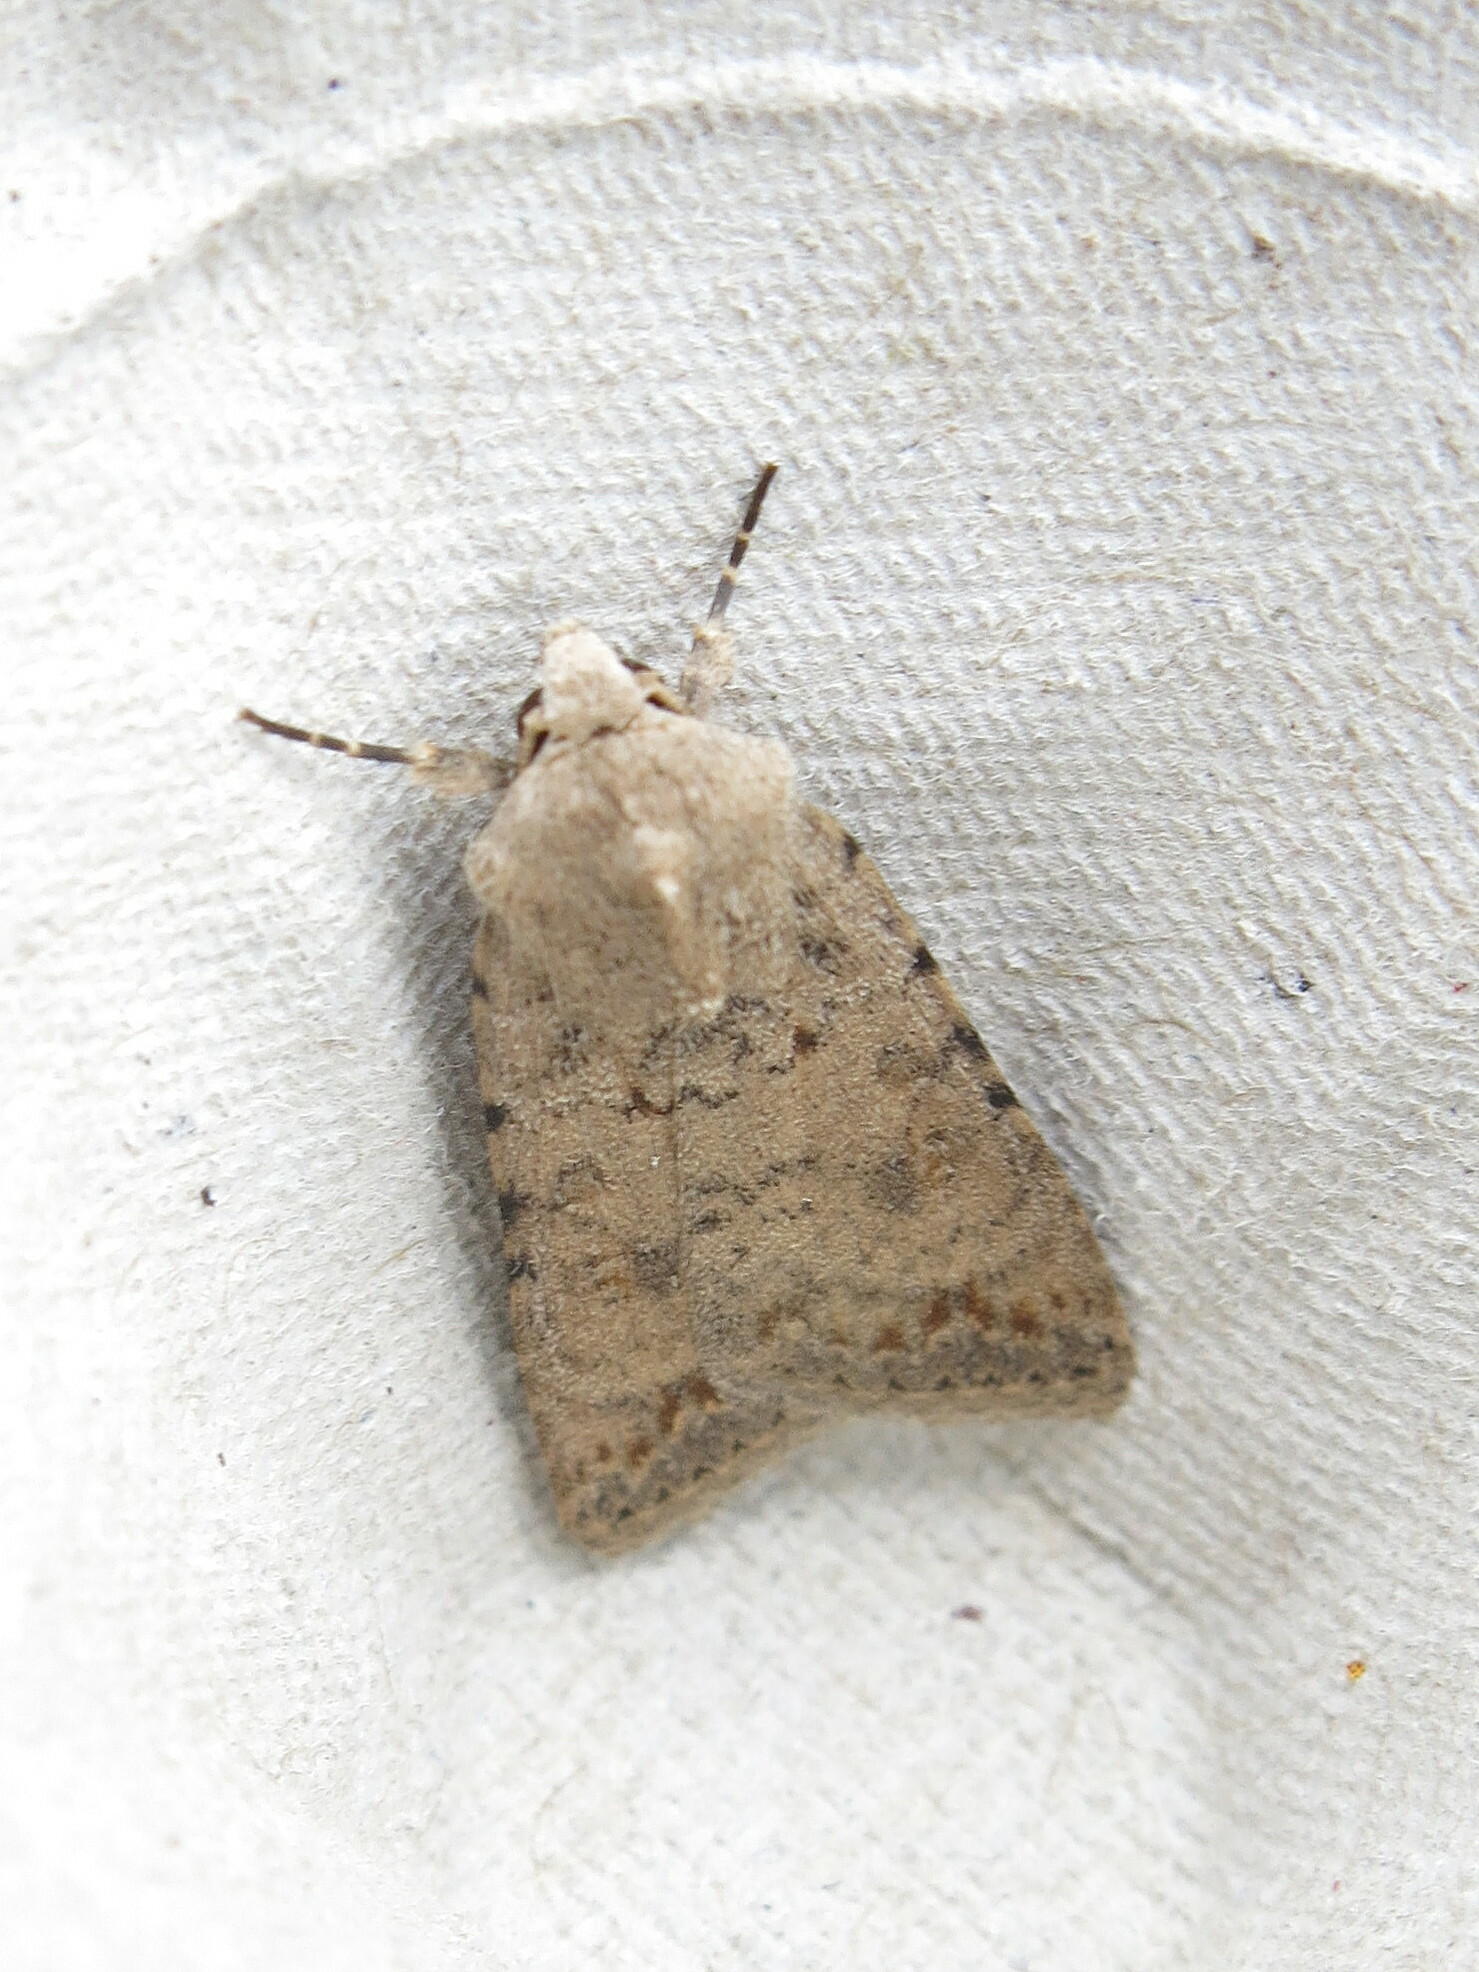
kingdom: Animalia
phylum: Arthropoda
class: Insecta
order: Lepidoptera
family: Noctuidae
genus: Caradrina
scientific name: Caradrina clavipalpis
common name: Pale mottled willow
